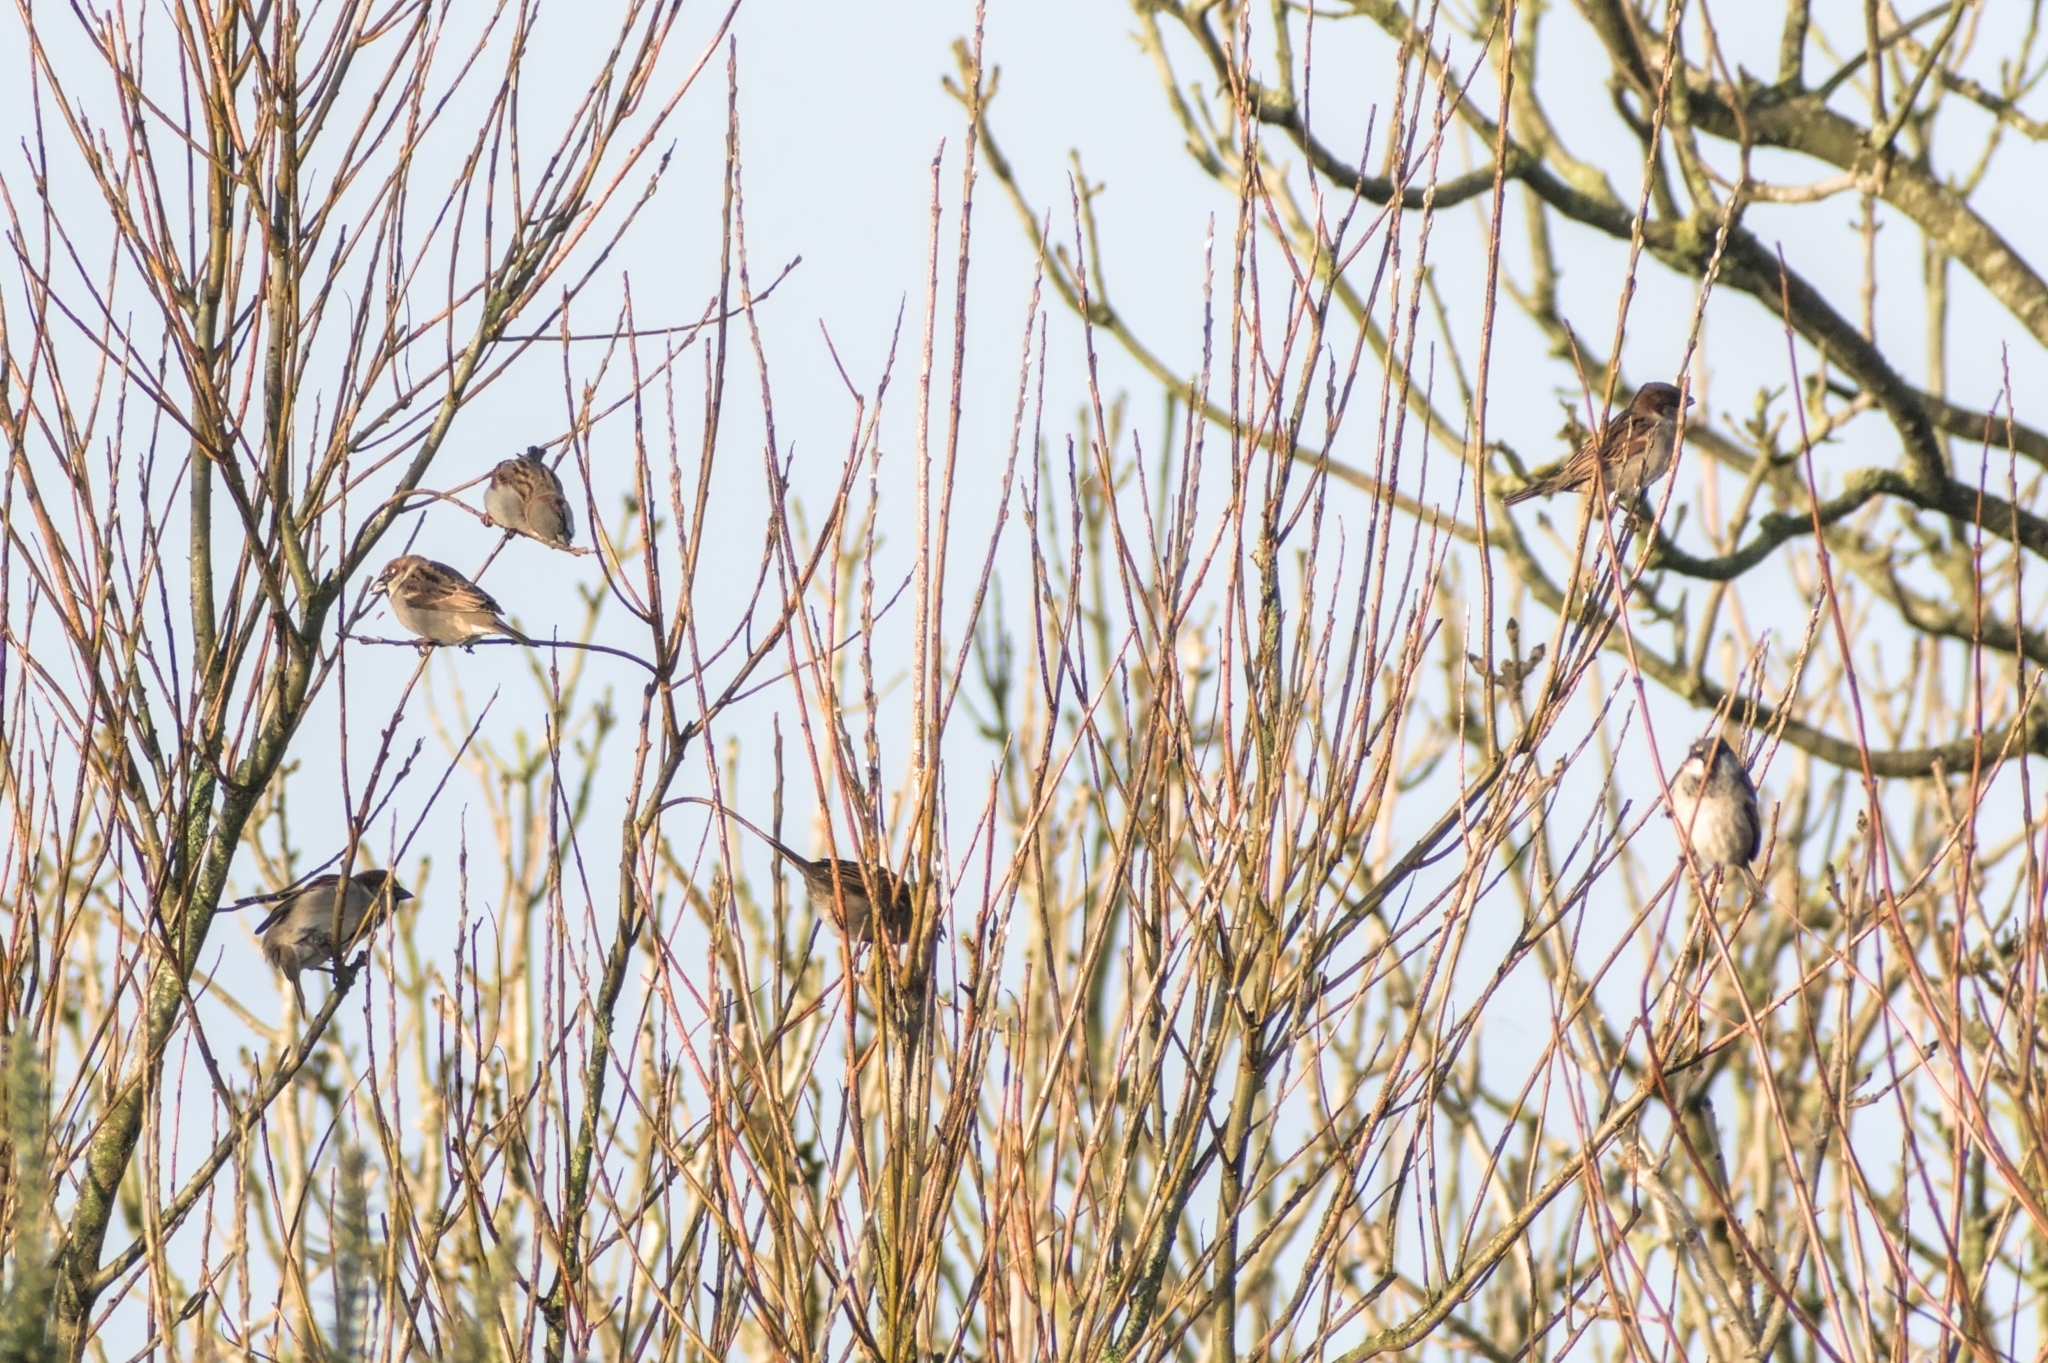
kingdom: Animalia
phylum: Chordata
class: Aves
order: Passeriformes
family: Passeridae
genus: Passer
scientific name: Passer domesticus
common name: House sparrow
